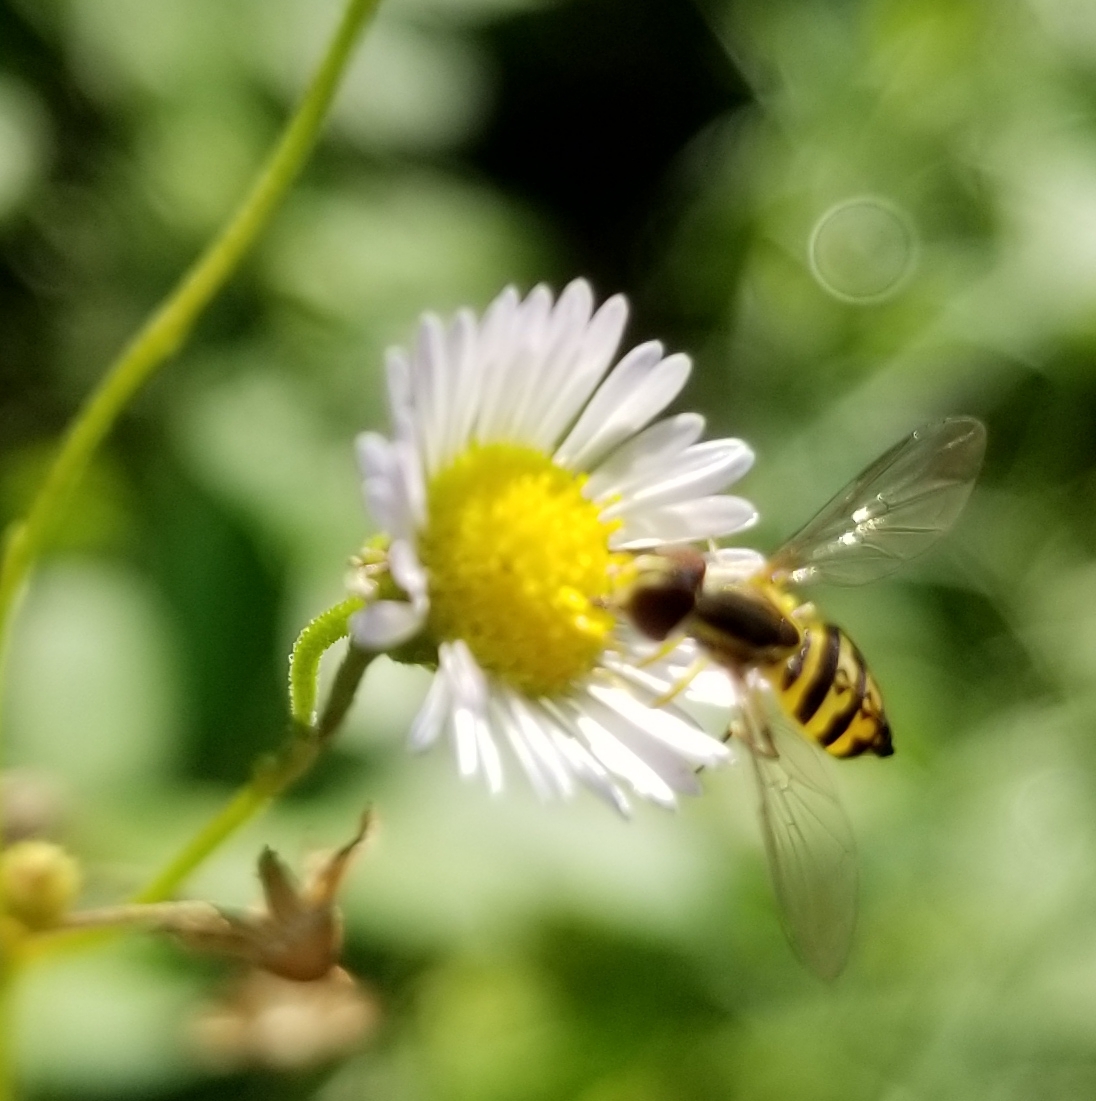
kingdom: Animalia
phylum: Arthropoda
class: Insecta
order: Diptera
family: Syrphidae
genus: Toxomerus
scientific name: Toxomerus geminatus
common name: Eastern calligrapher
